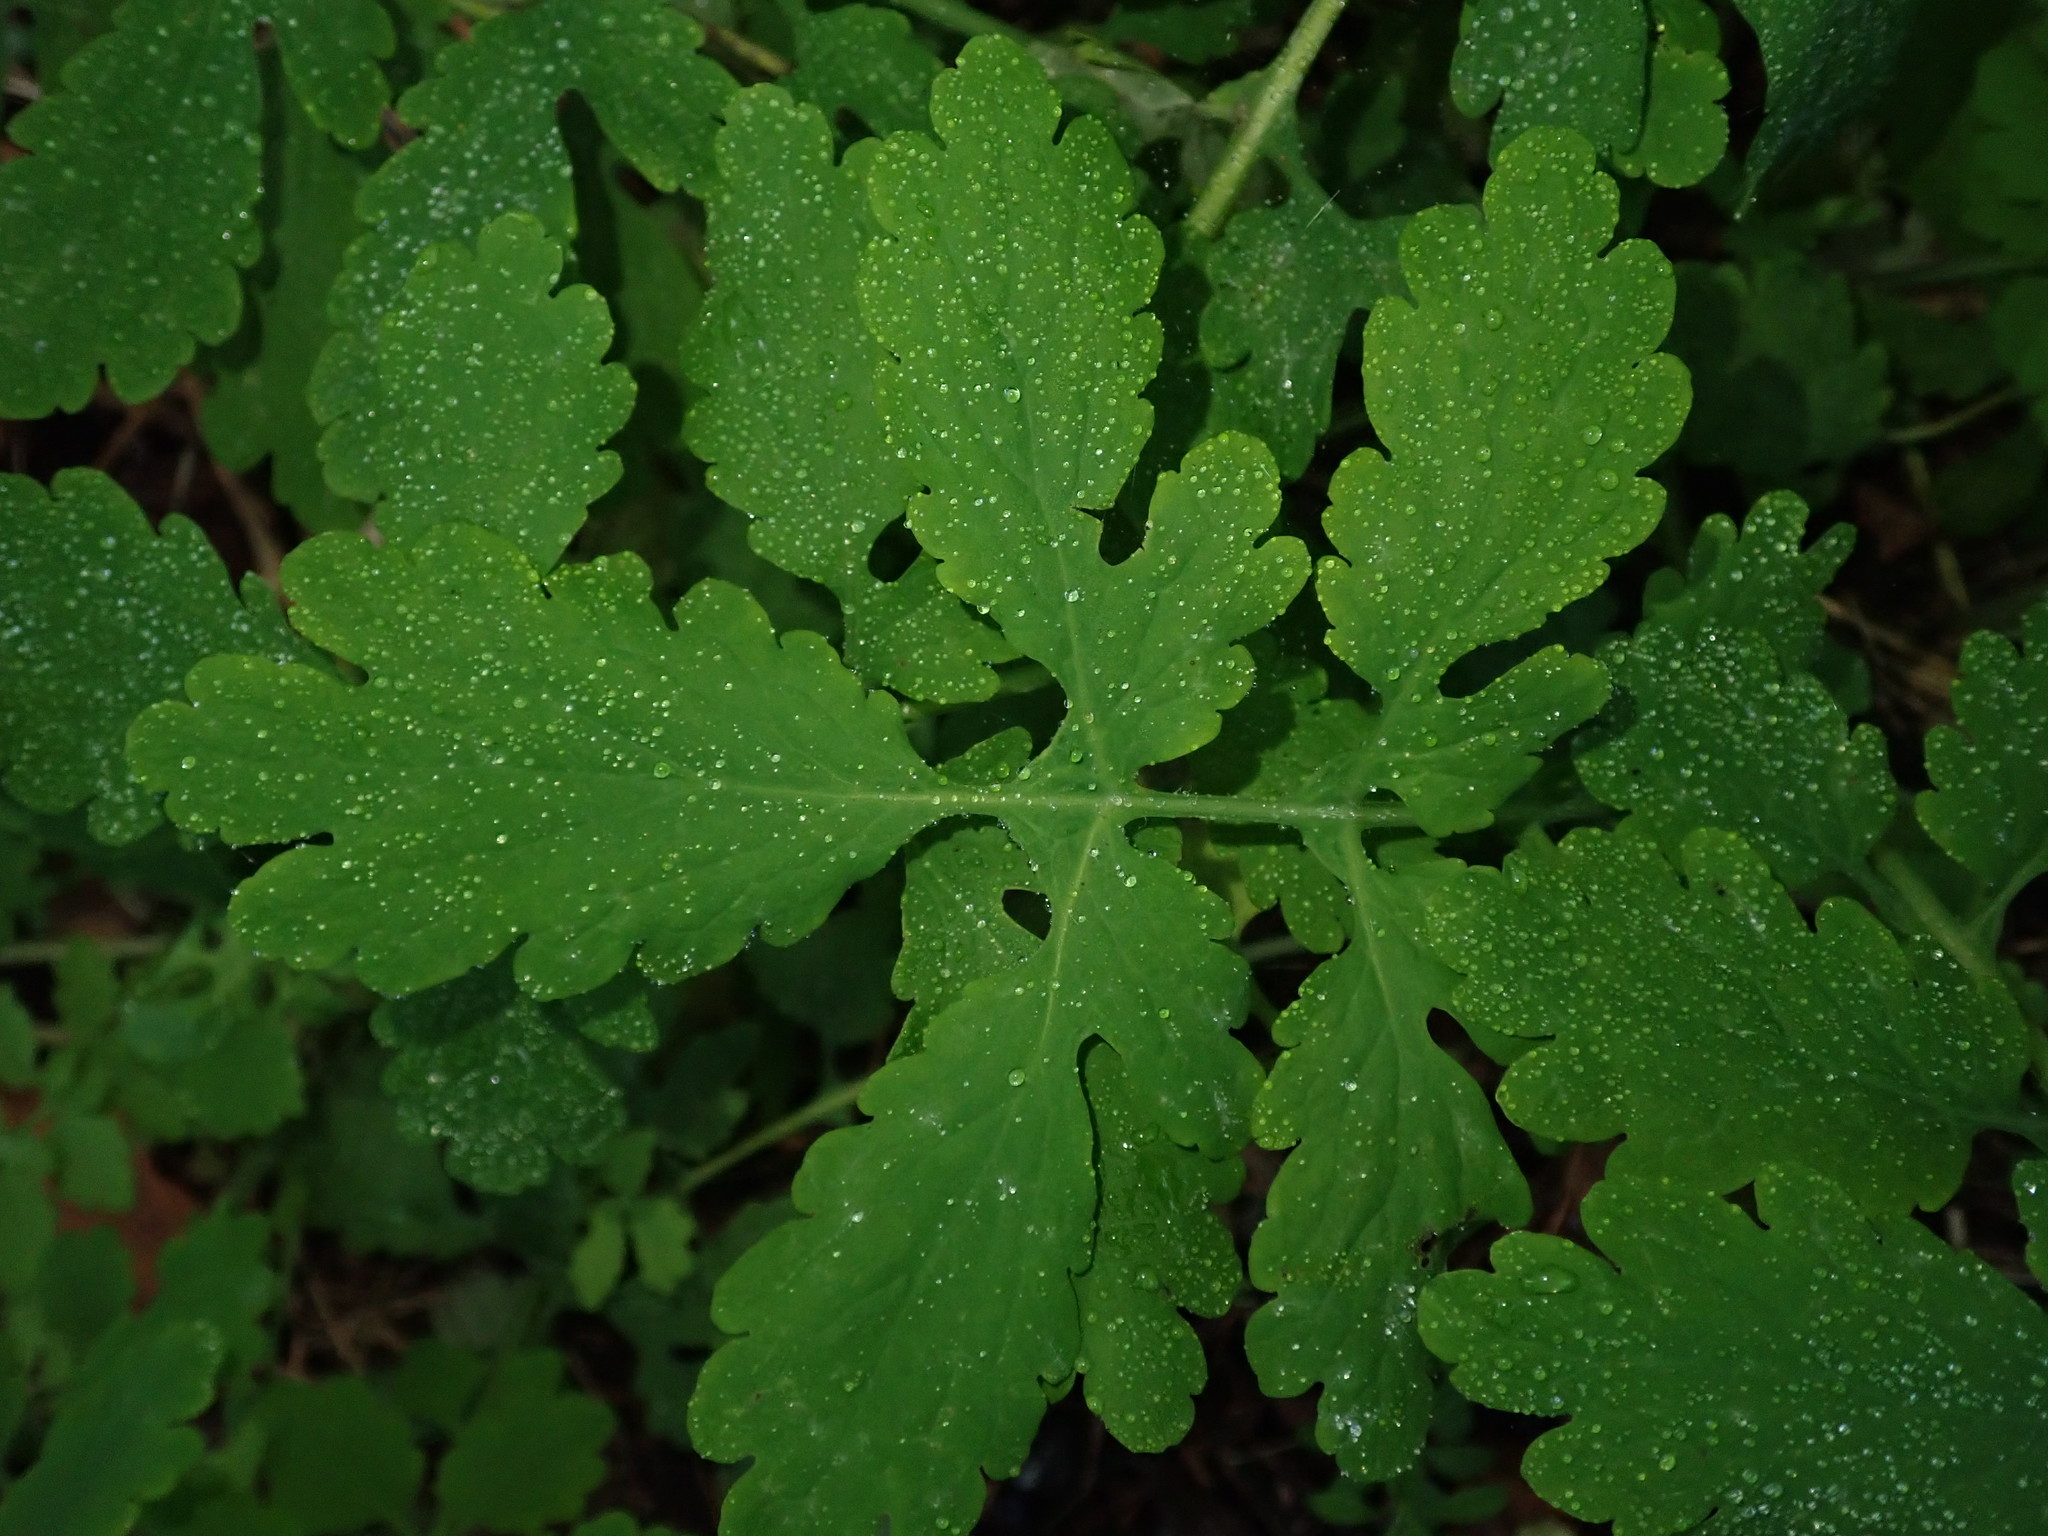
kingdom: Plantae
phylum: Tracheophyta
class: Magnoliopsida
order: Ranunculales
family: Papaveraceae
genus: Chelidonium
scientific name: Chelidonium majus
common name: Greater celandine
